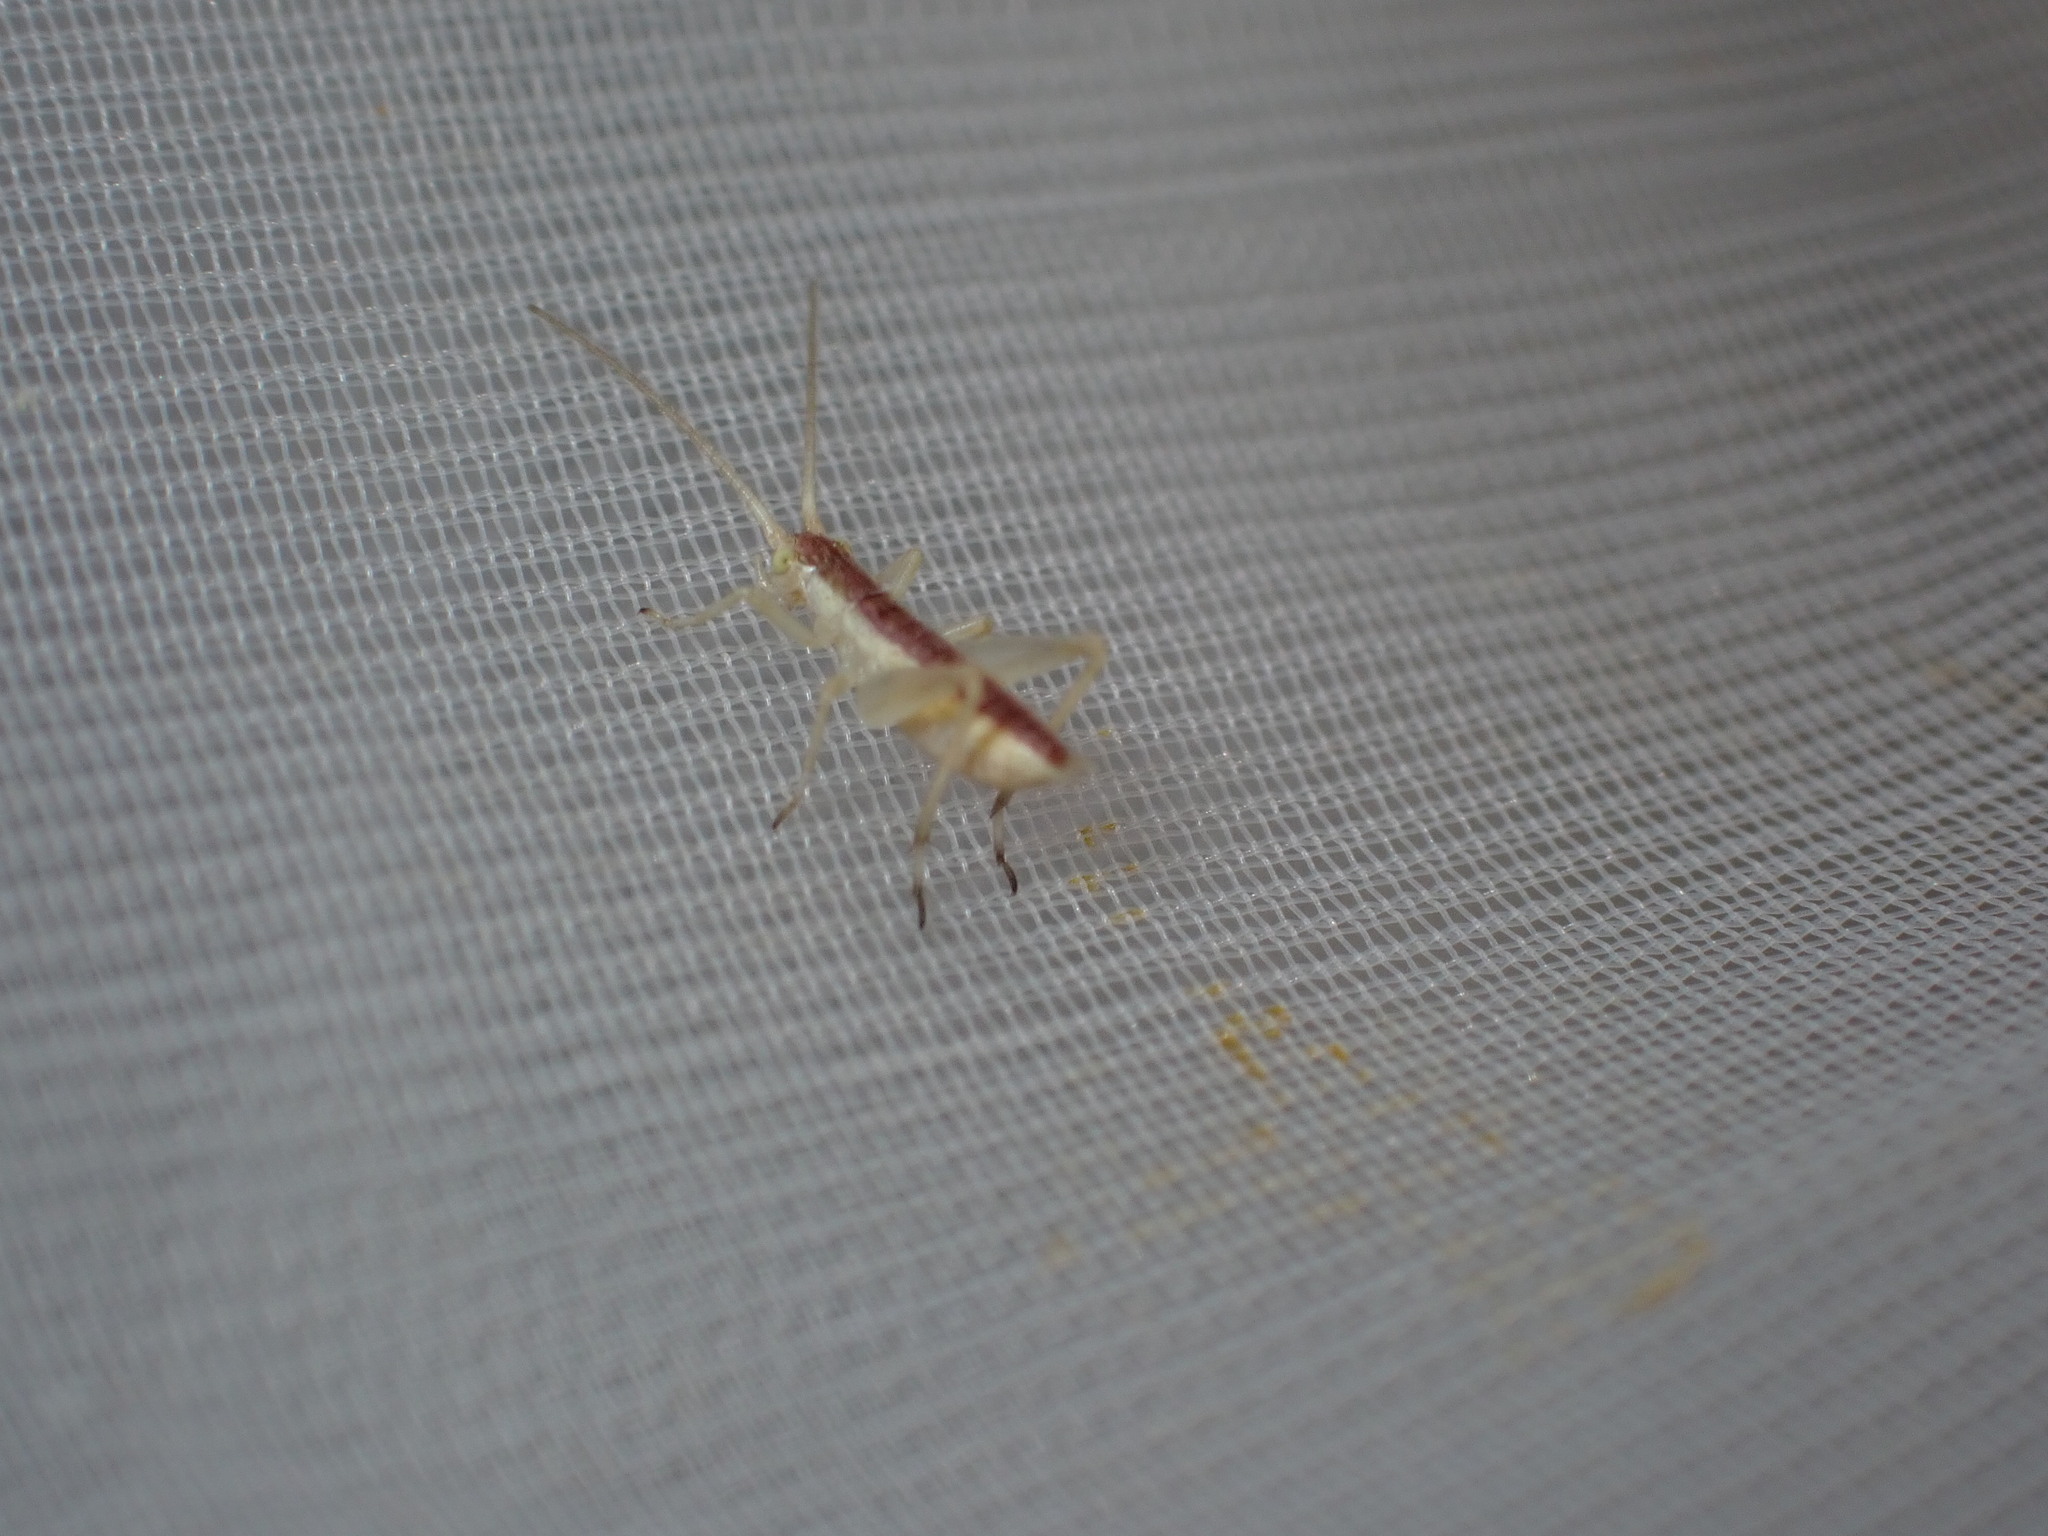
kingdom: Animalia
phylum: Arthropoda
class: Insecta
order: Orthoptera
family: Gryllidae
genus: Oecanthus
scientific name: Oecanthus pellucens
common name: Tree-cricket
